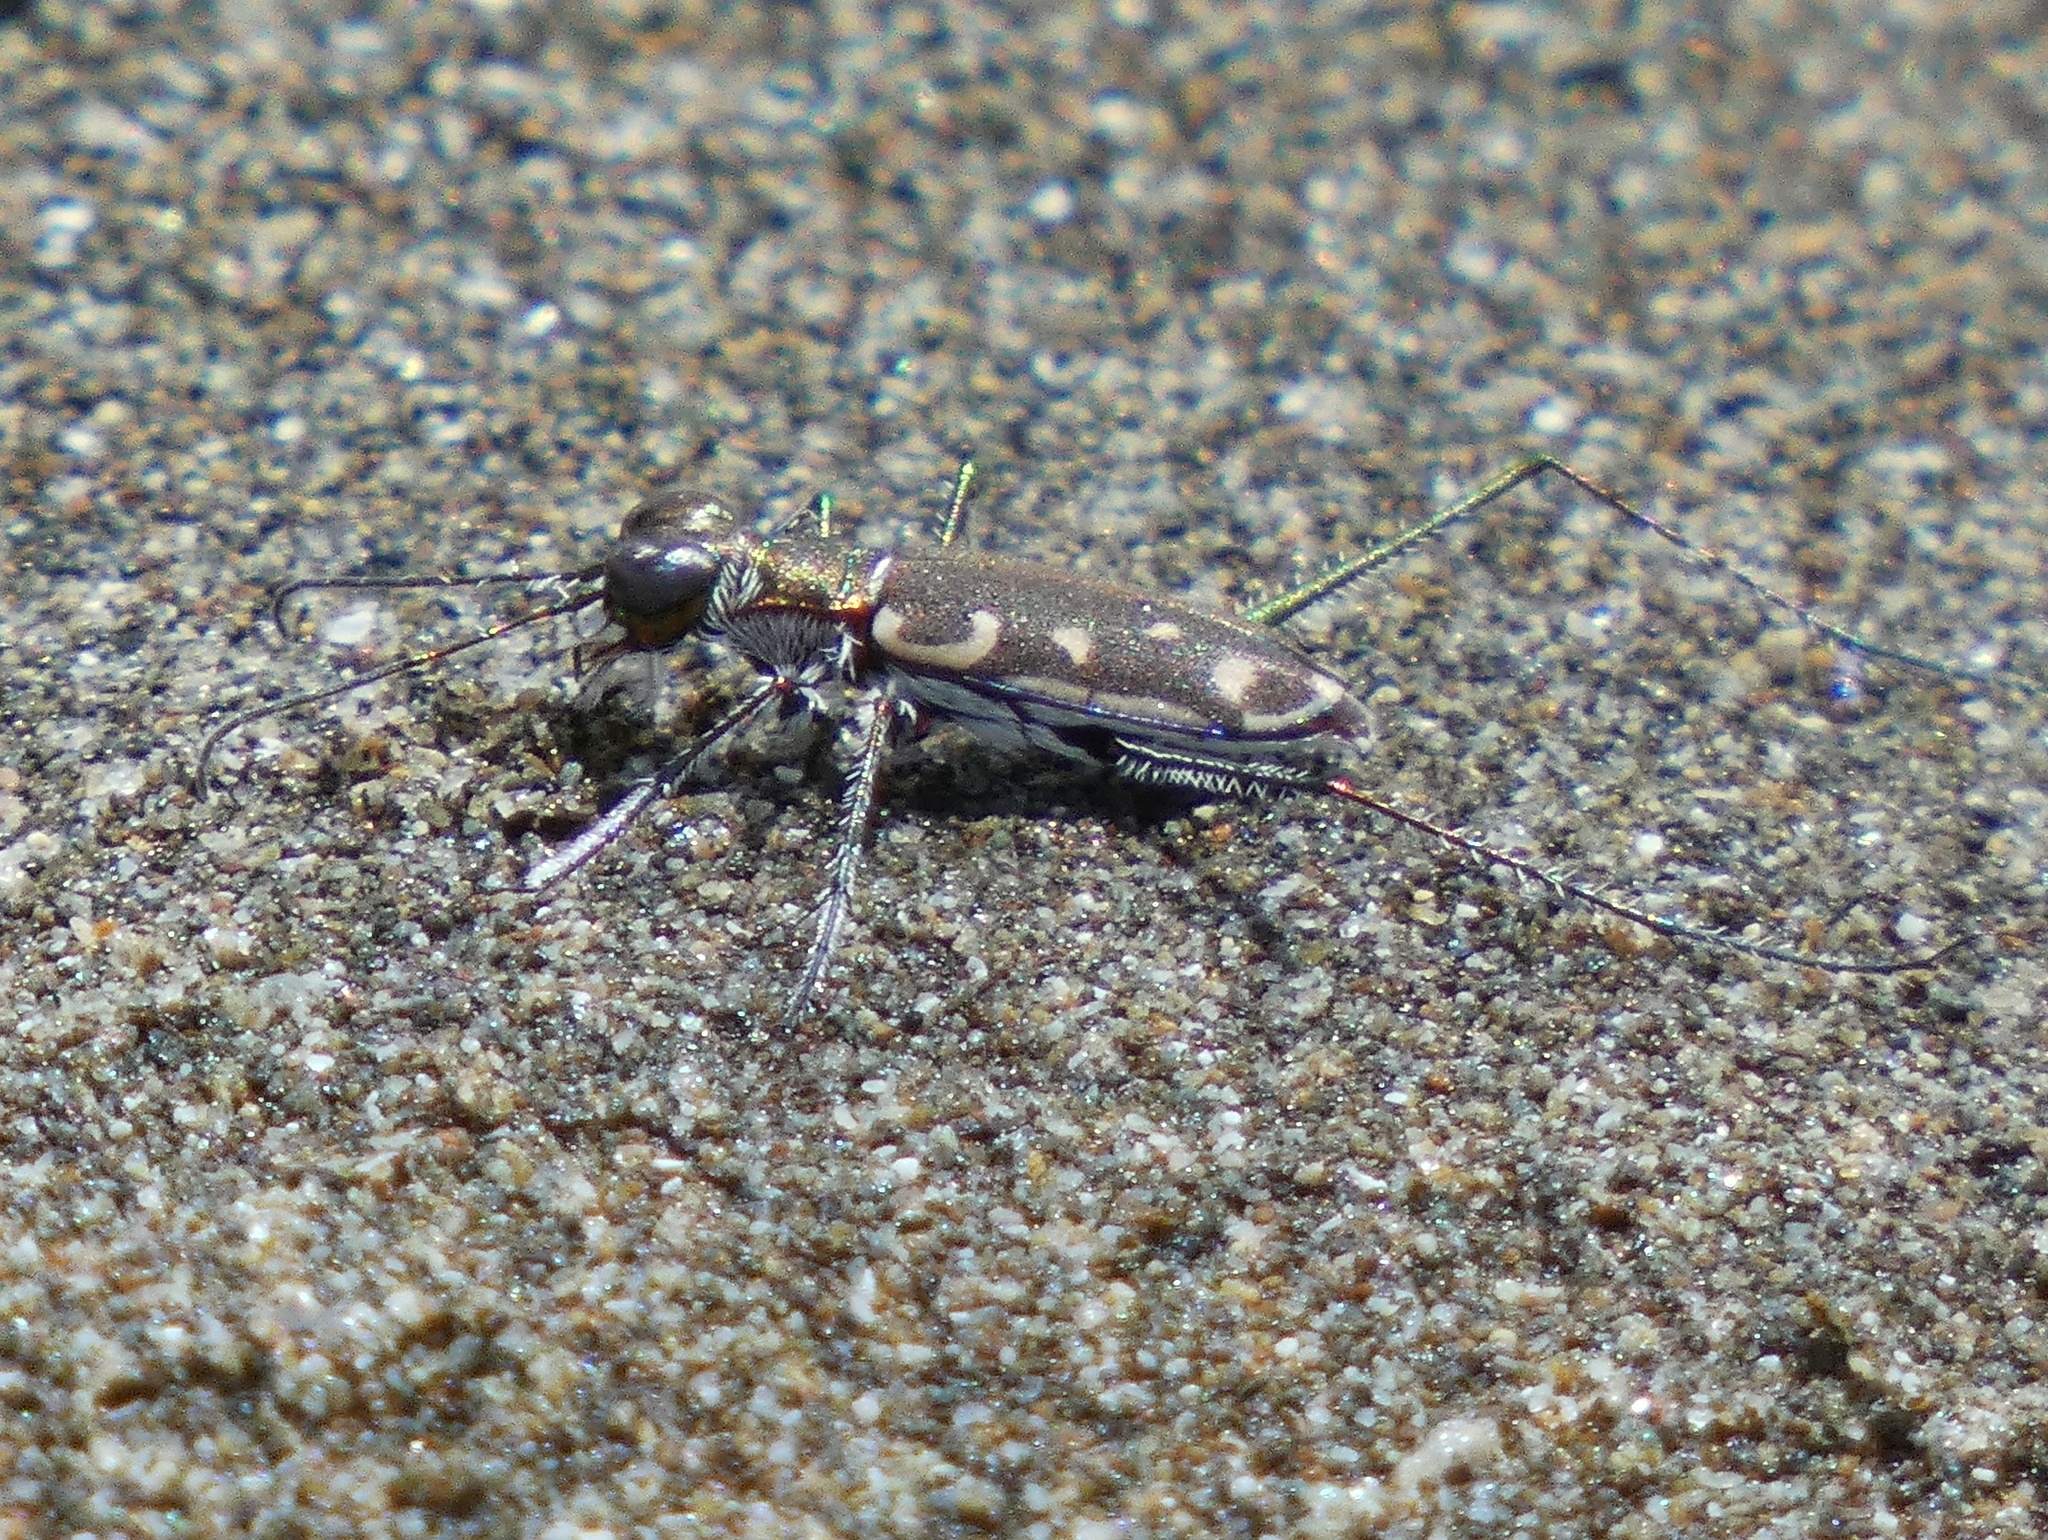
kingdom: Animalia
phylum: Arthropoda
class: Insecta
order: Coleoptera
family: Carabidae
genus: Opilidia
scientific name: Opilidia macrocnema
